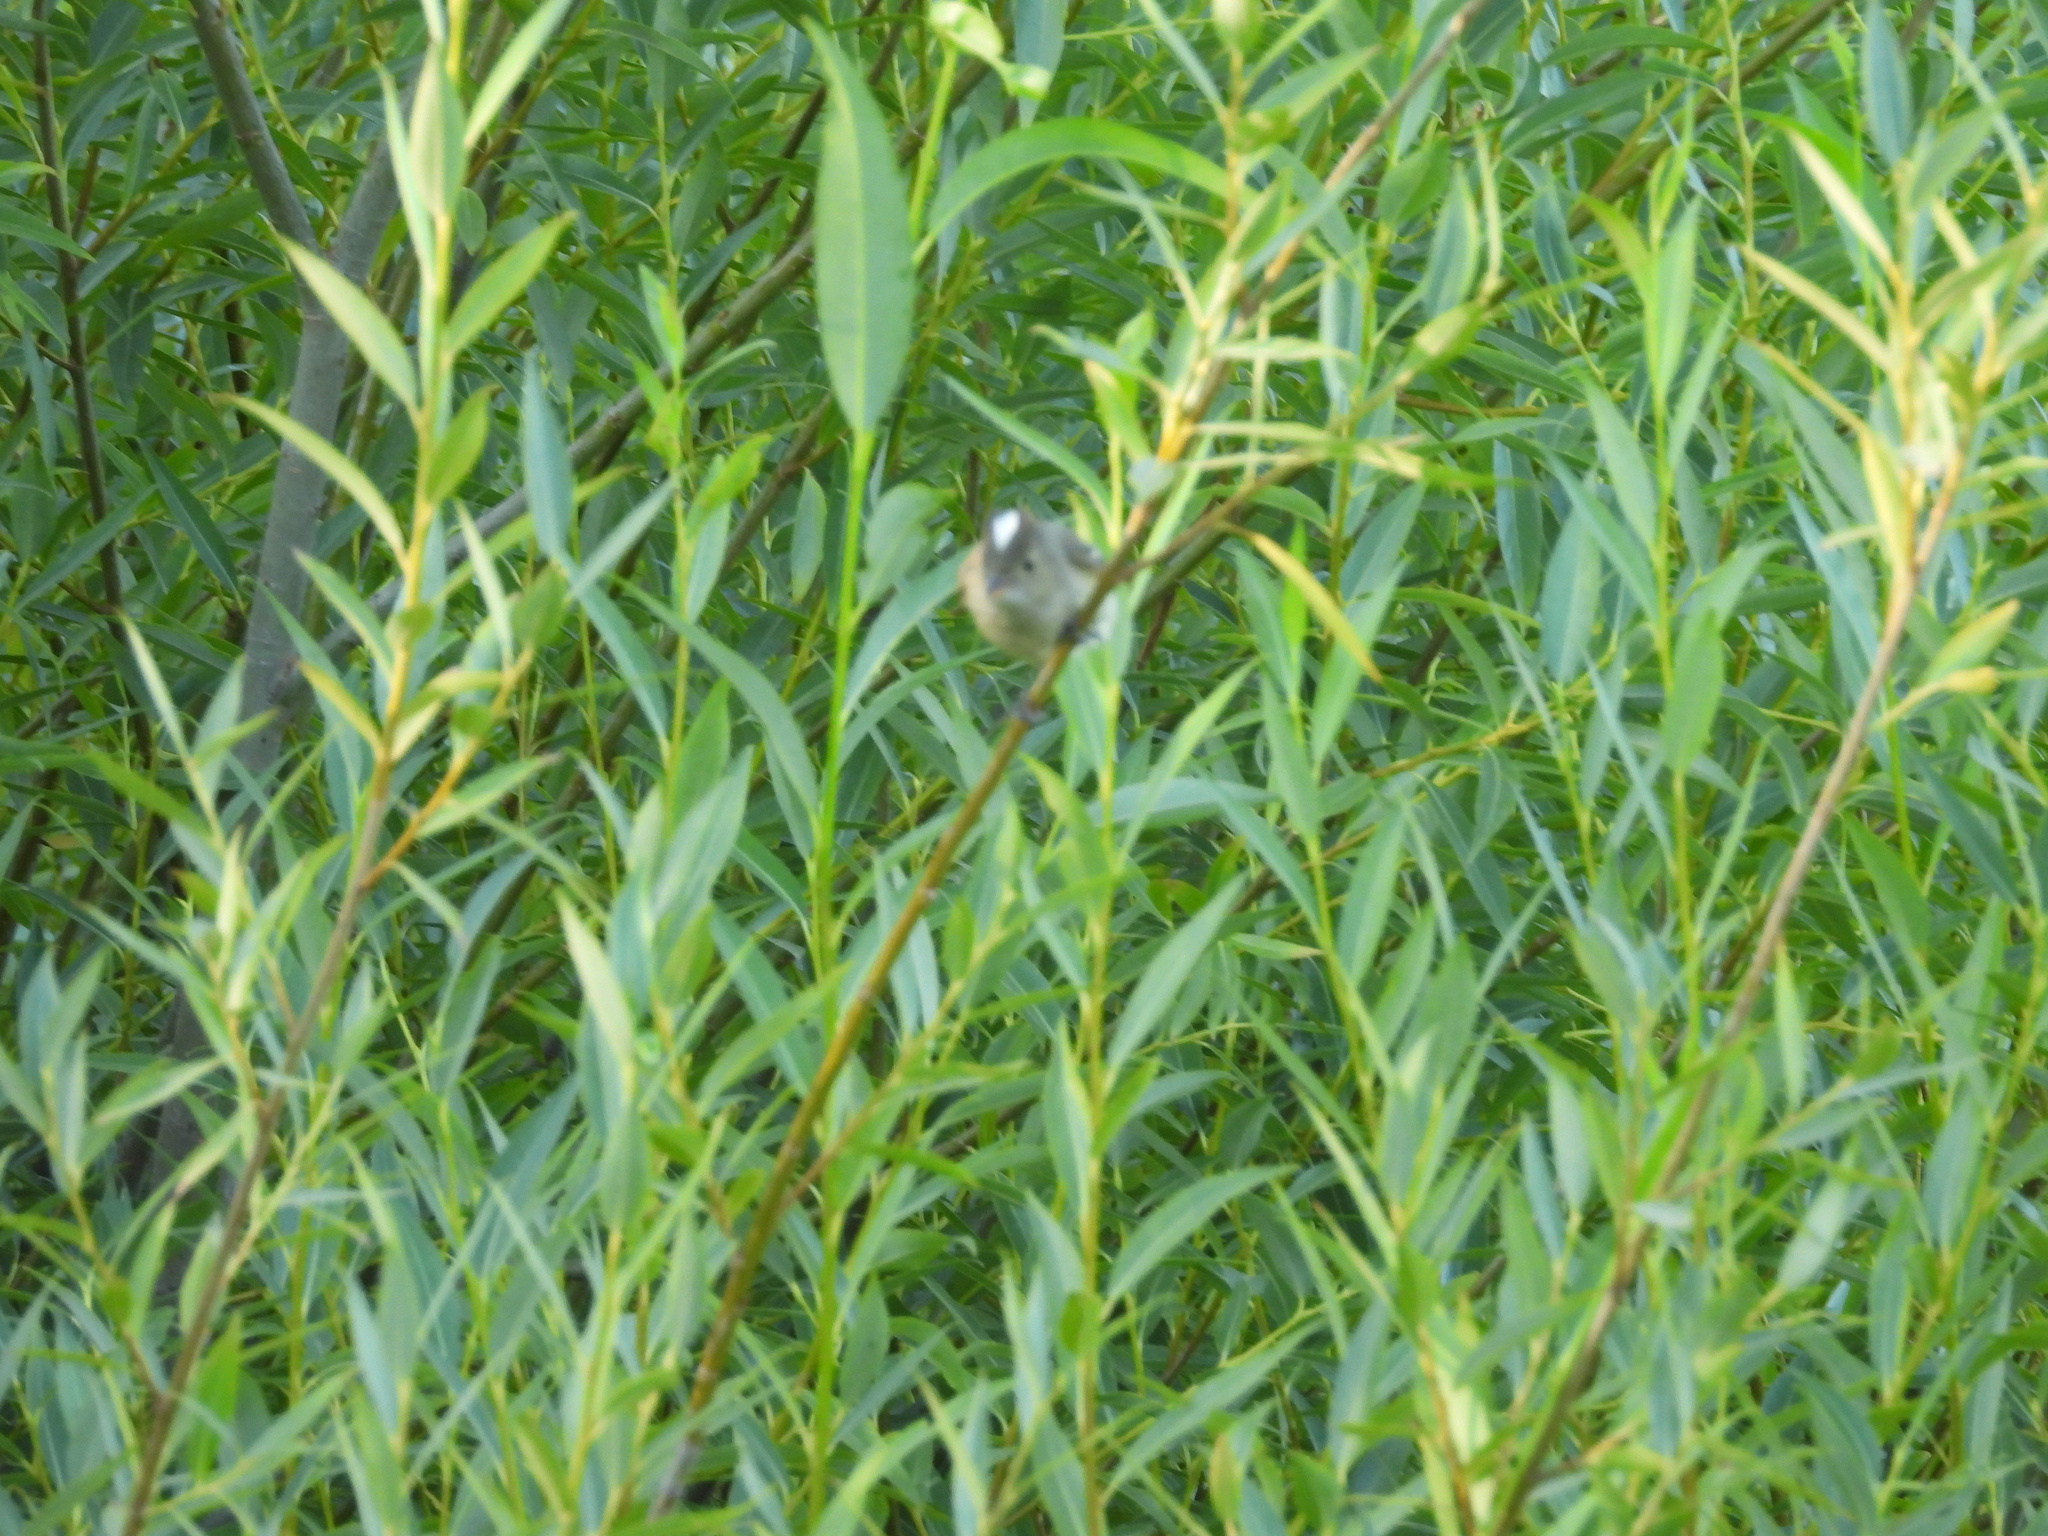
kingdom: Animalia
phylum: Chordata
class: Aves
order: Passeriformes
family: Tyrannidae
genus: Elaenia
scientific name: Elaenia albiceps
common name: White-crested elaenia
